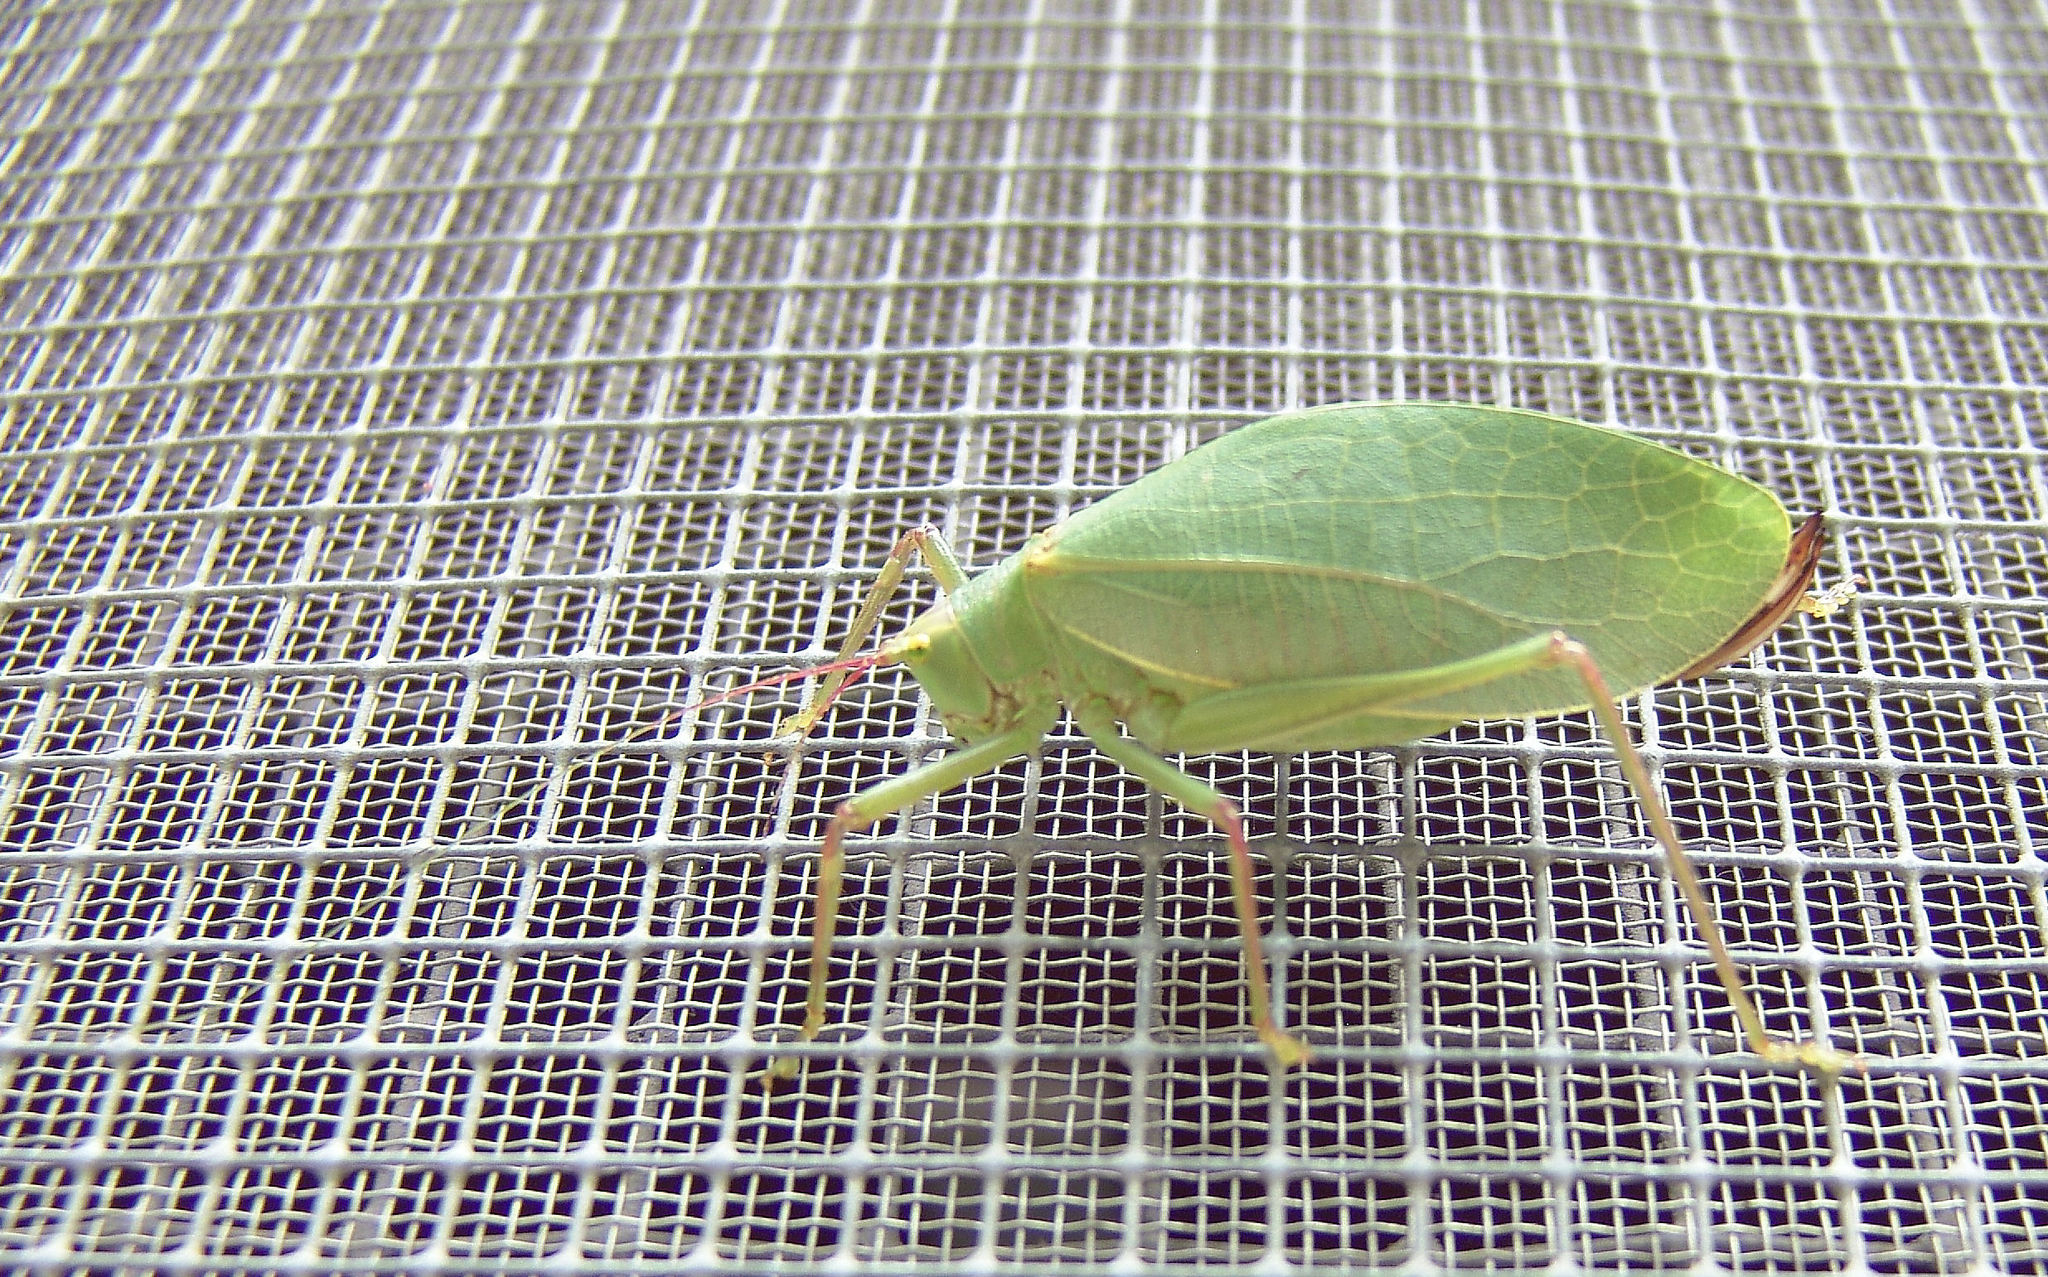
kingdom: Animalia
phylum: Arthropoda
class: Insecta
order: Orthoptera
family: Tettigoniidae
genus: Pterophylla
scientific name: Pterophylla camellifolia
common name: Common true katydid
